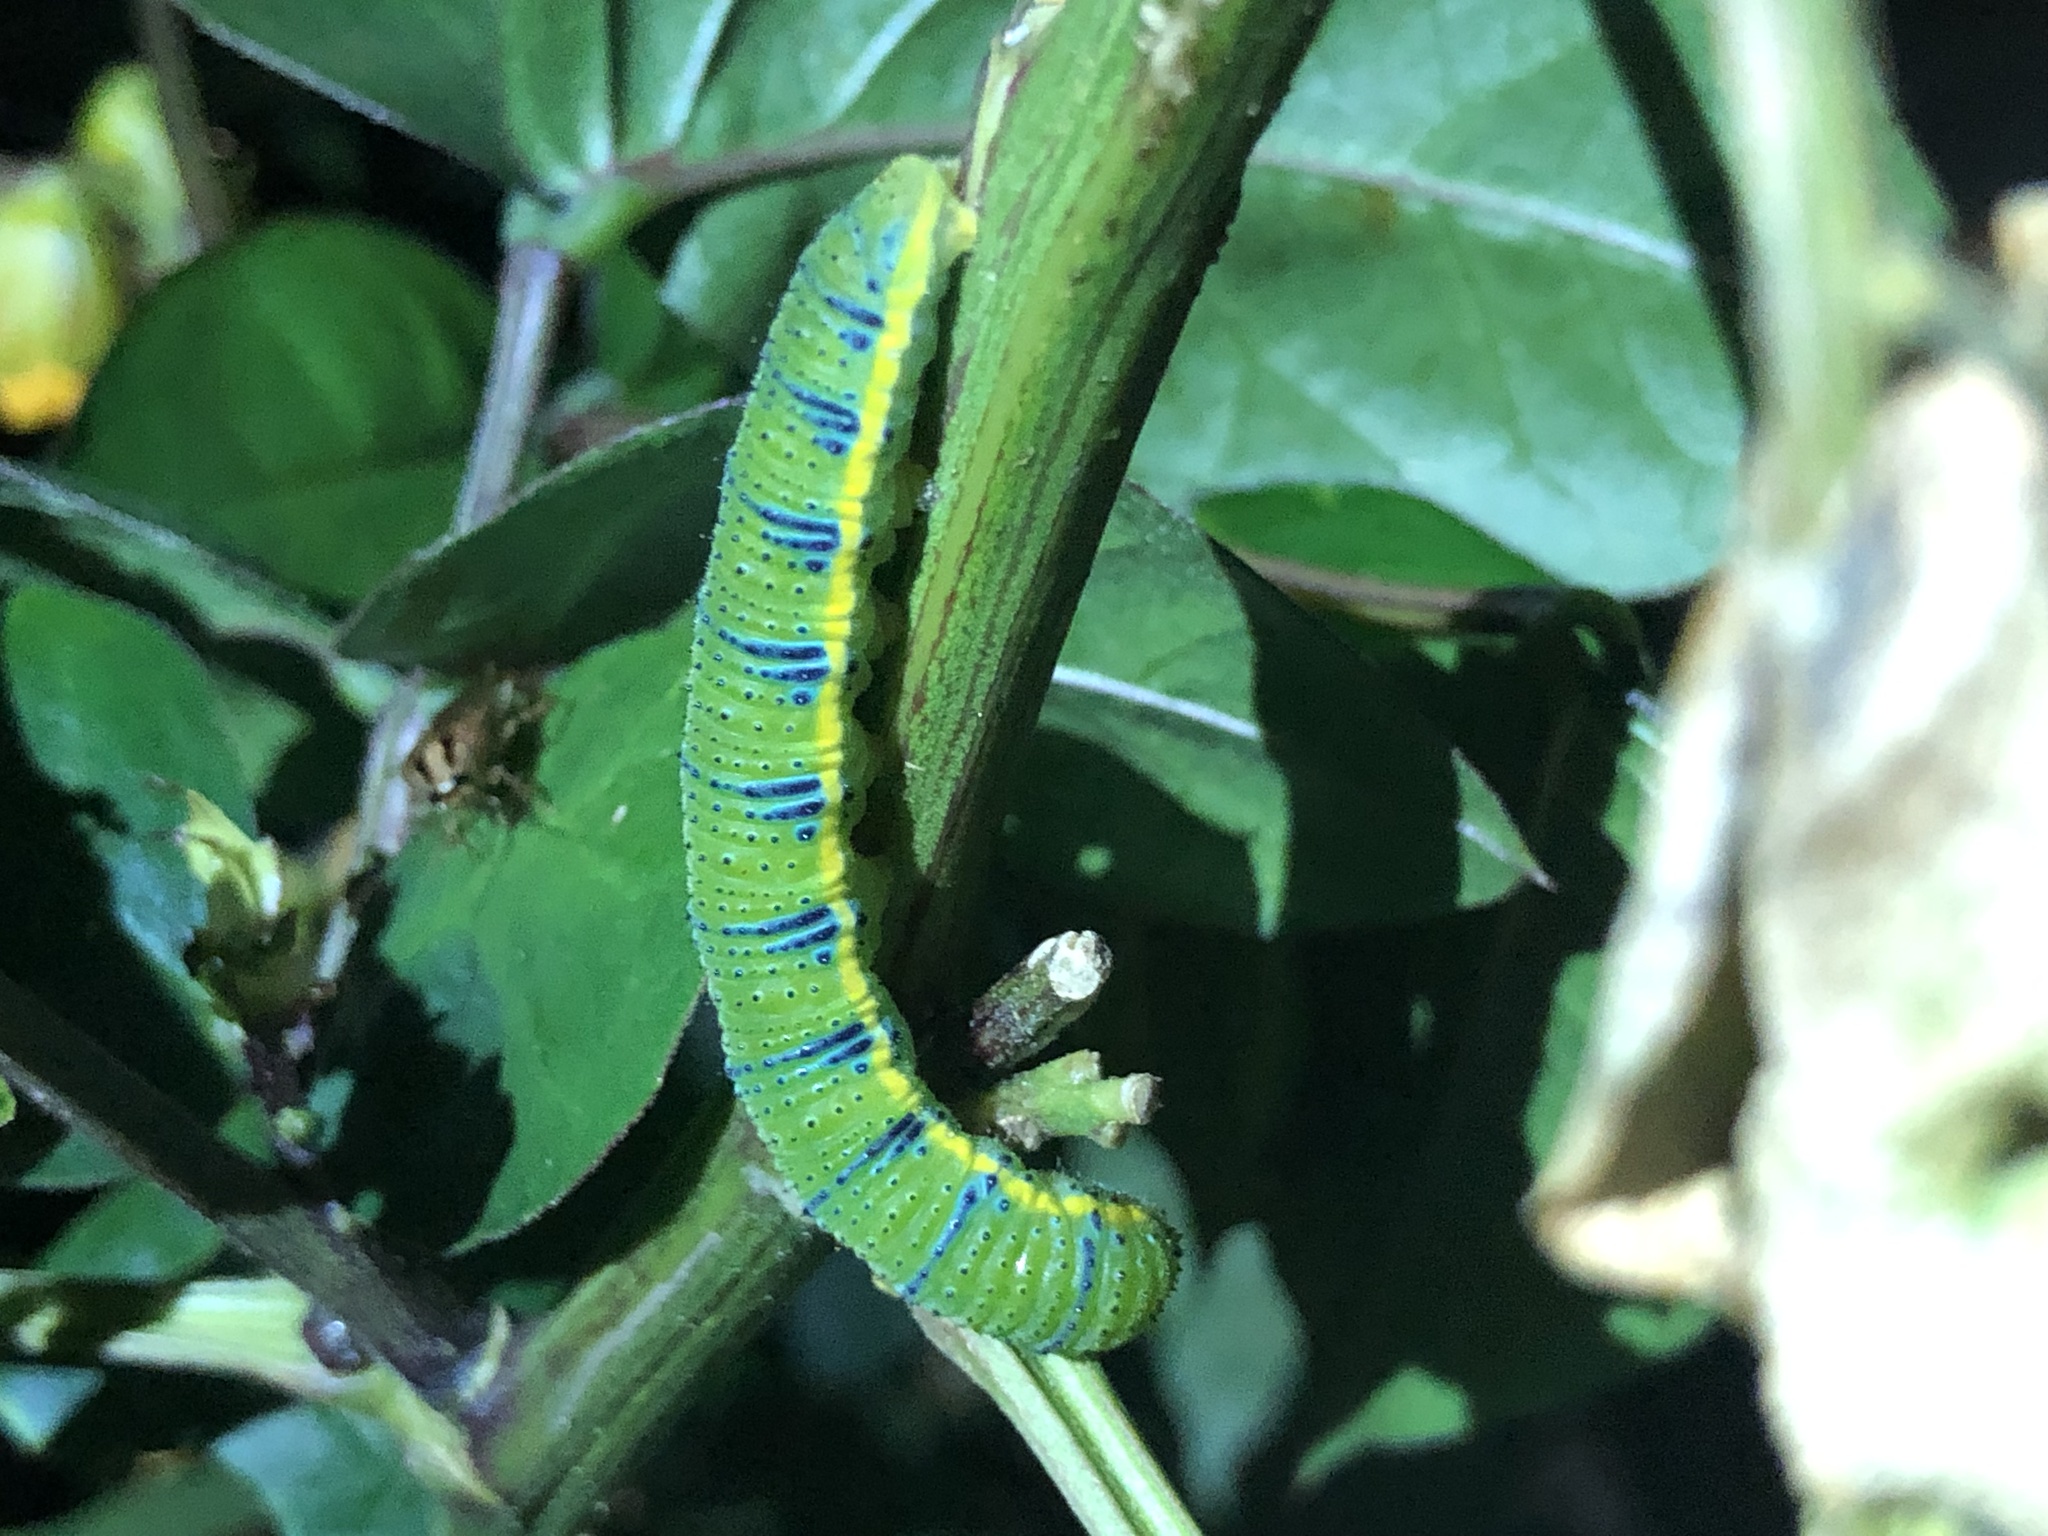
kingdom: Animalia
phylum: Arthropoda
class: Insecta
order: Lepidoptera
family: Pieridae
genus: Phoebis
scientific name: Phoebis sennae
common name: Cloudless sulphur
